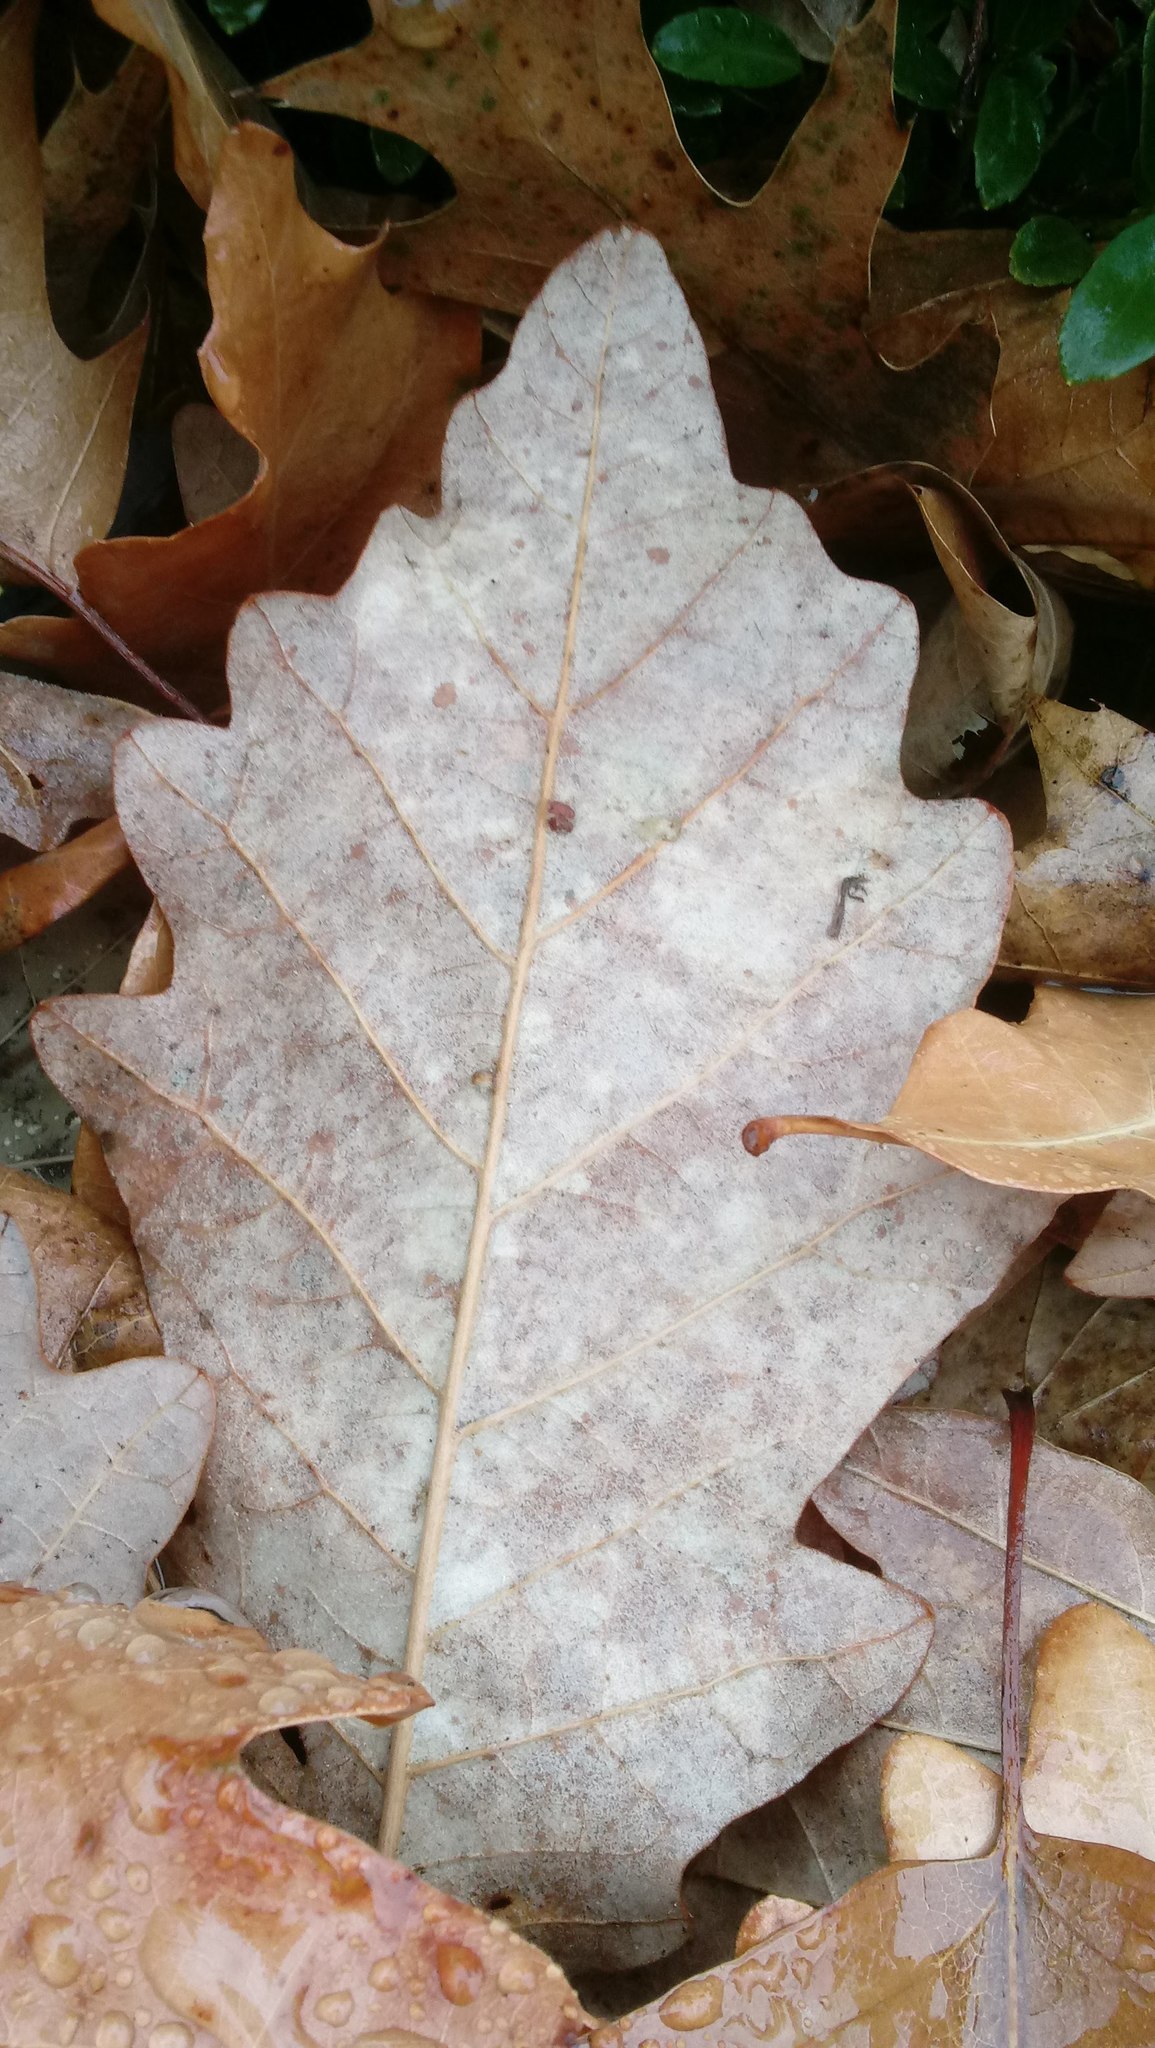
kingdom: Animalia
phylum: Arthropoda
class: Insecta
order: Hymenoptera
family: Cynipidae
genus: Andricus
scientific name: Andricus Druon ignotum
